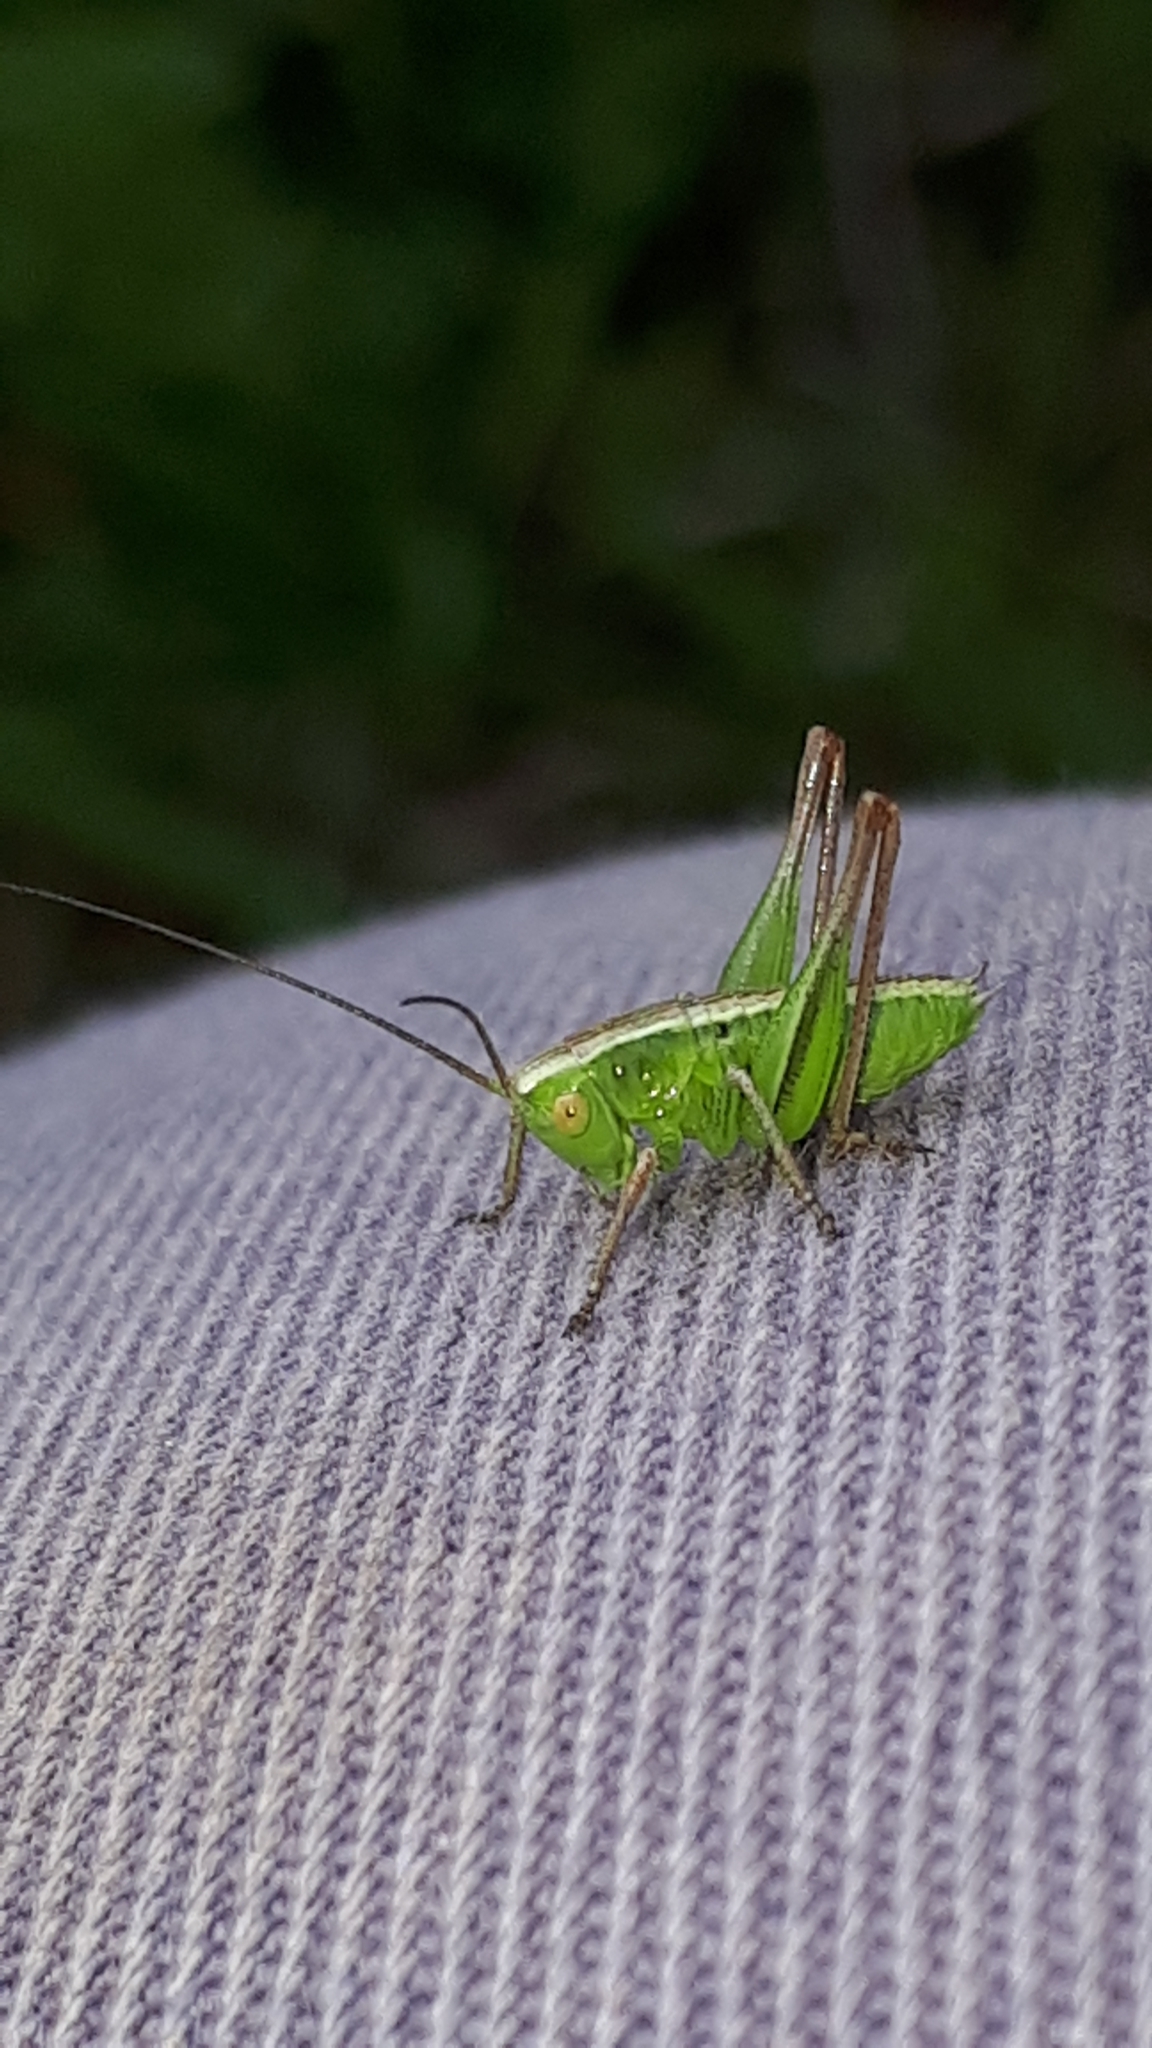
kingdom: Animalia
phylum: Arthropoda
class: Insecta
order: Orthoptera
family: Tettigoniidae
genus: Roeseliana
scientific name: Roeseliana roeselii
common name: Roesel's bush cricket
